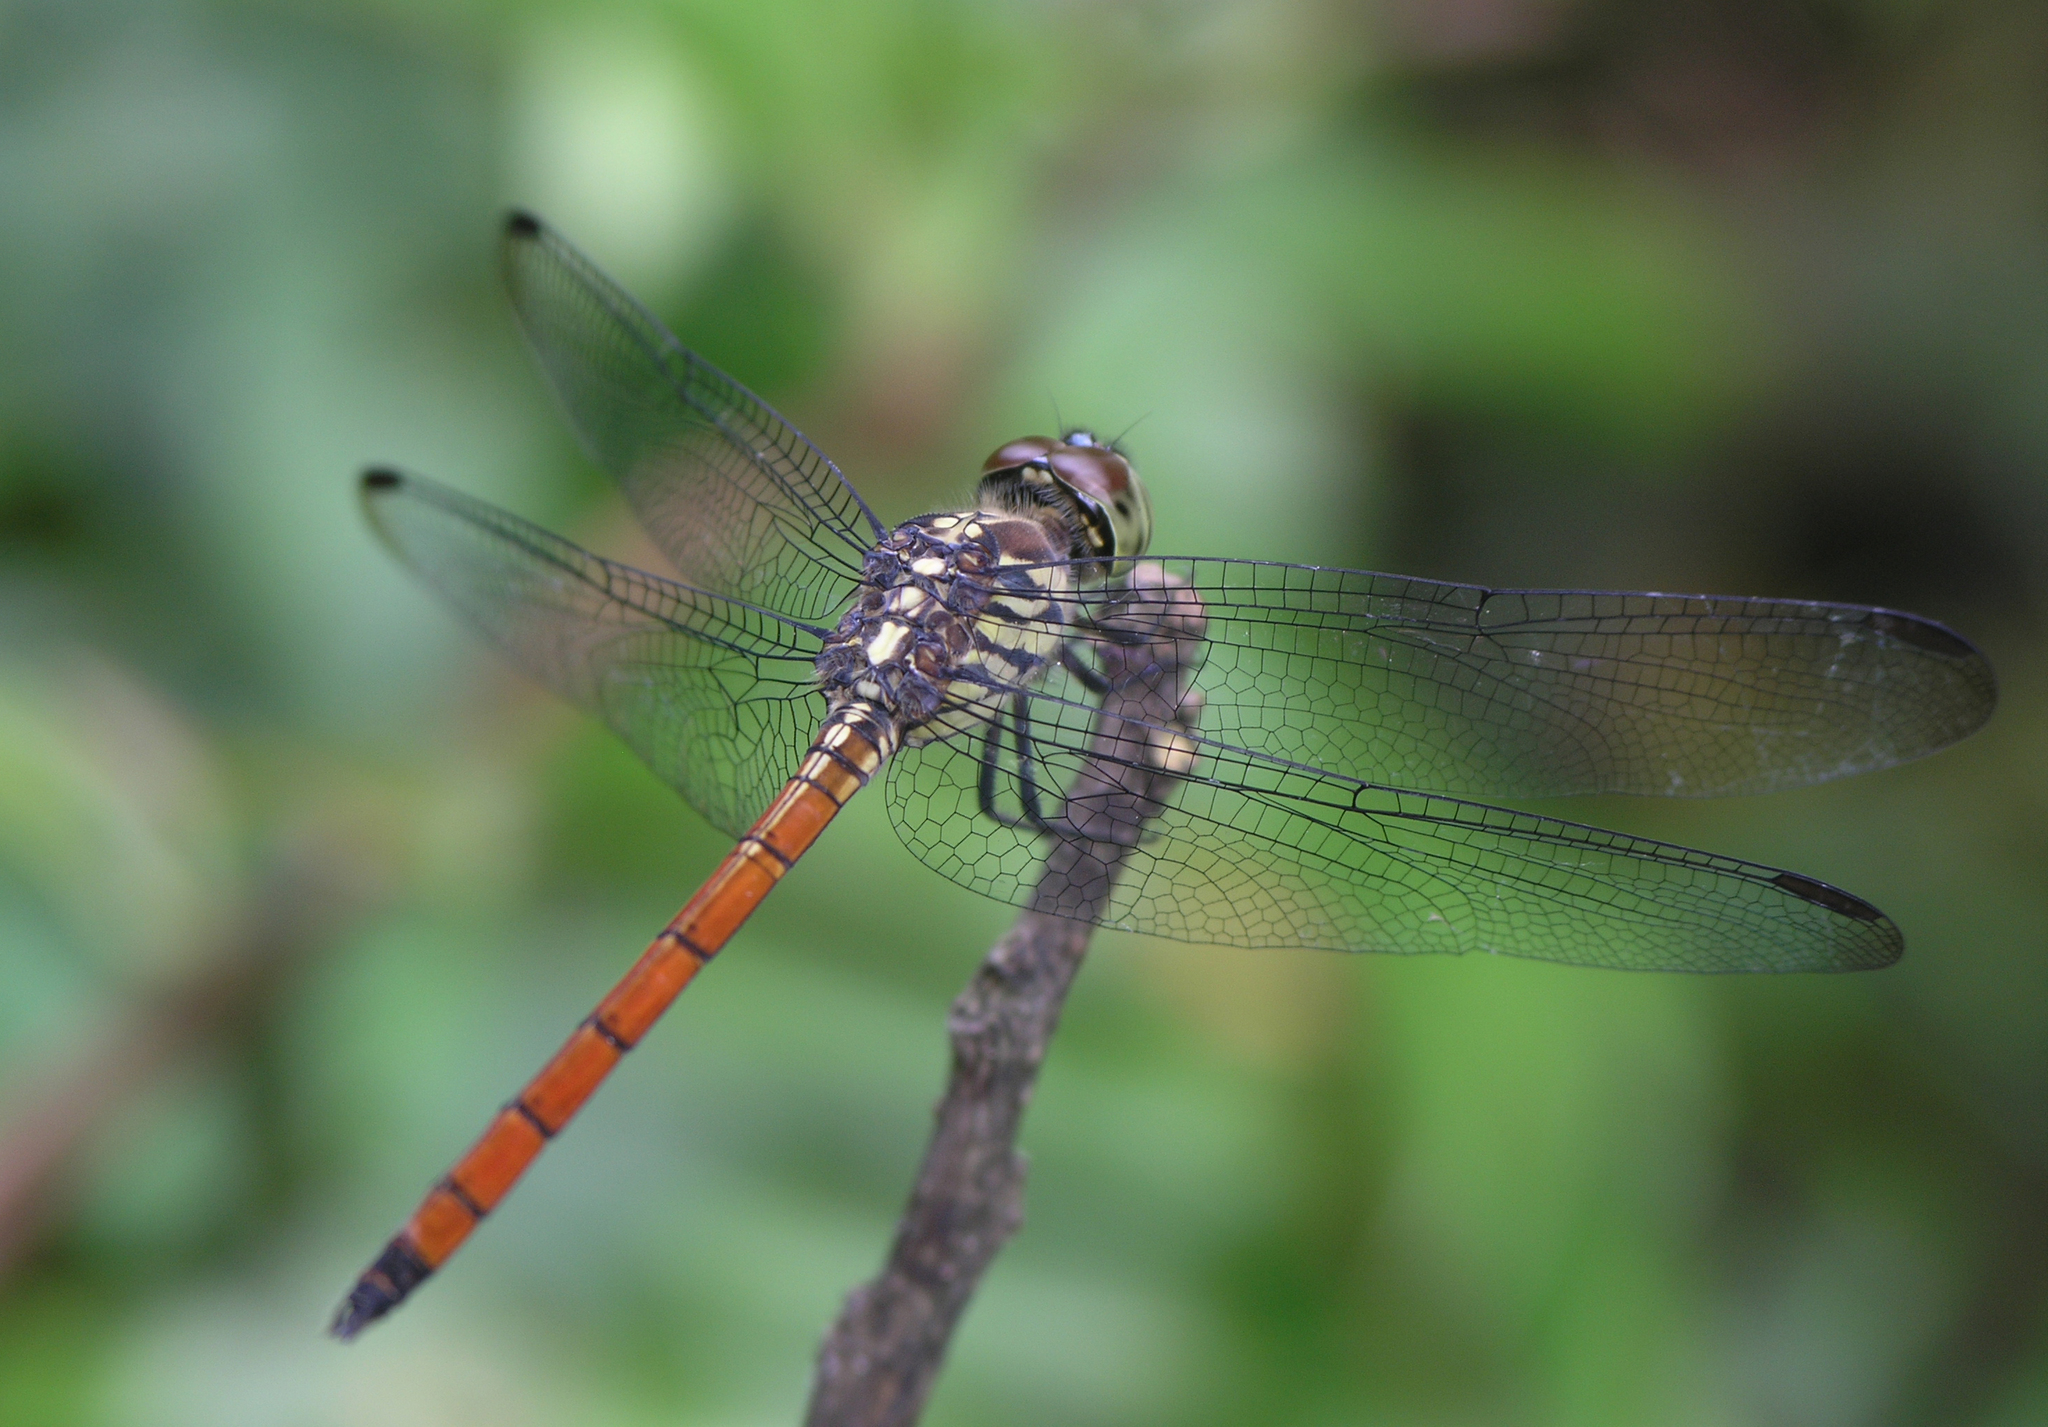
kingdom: Animalia
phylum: Arthropoda
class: Insecta
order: Odonata
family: Libellulidae
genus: Lathrecista
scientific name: Lathrecista asiatica
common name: Scarlet grenadier
